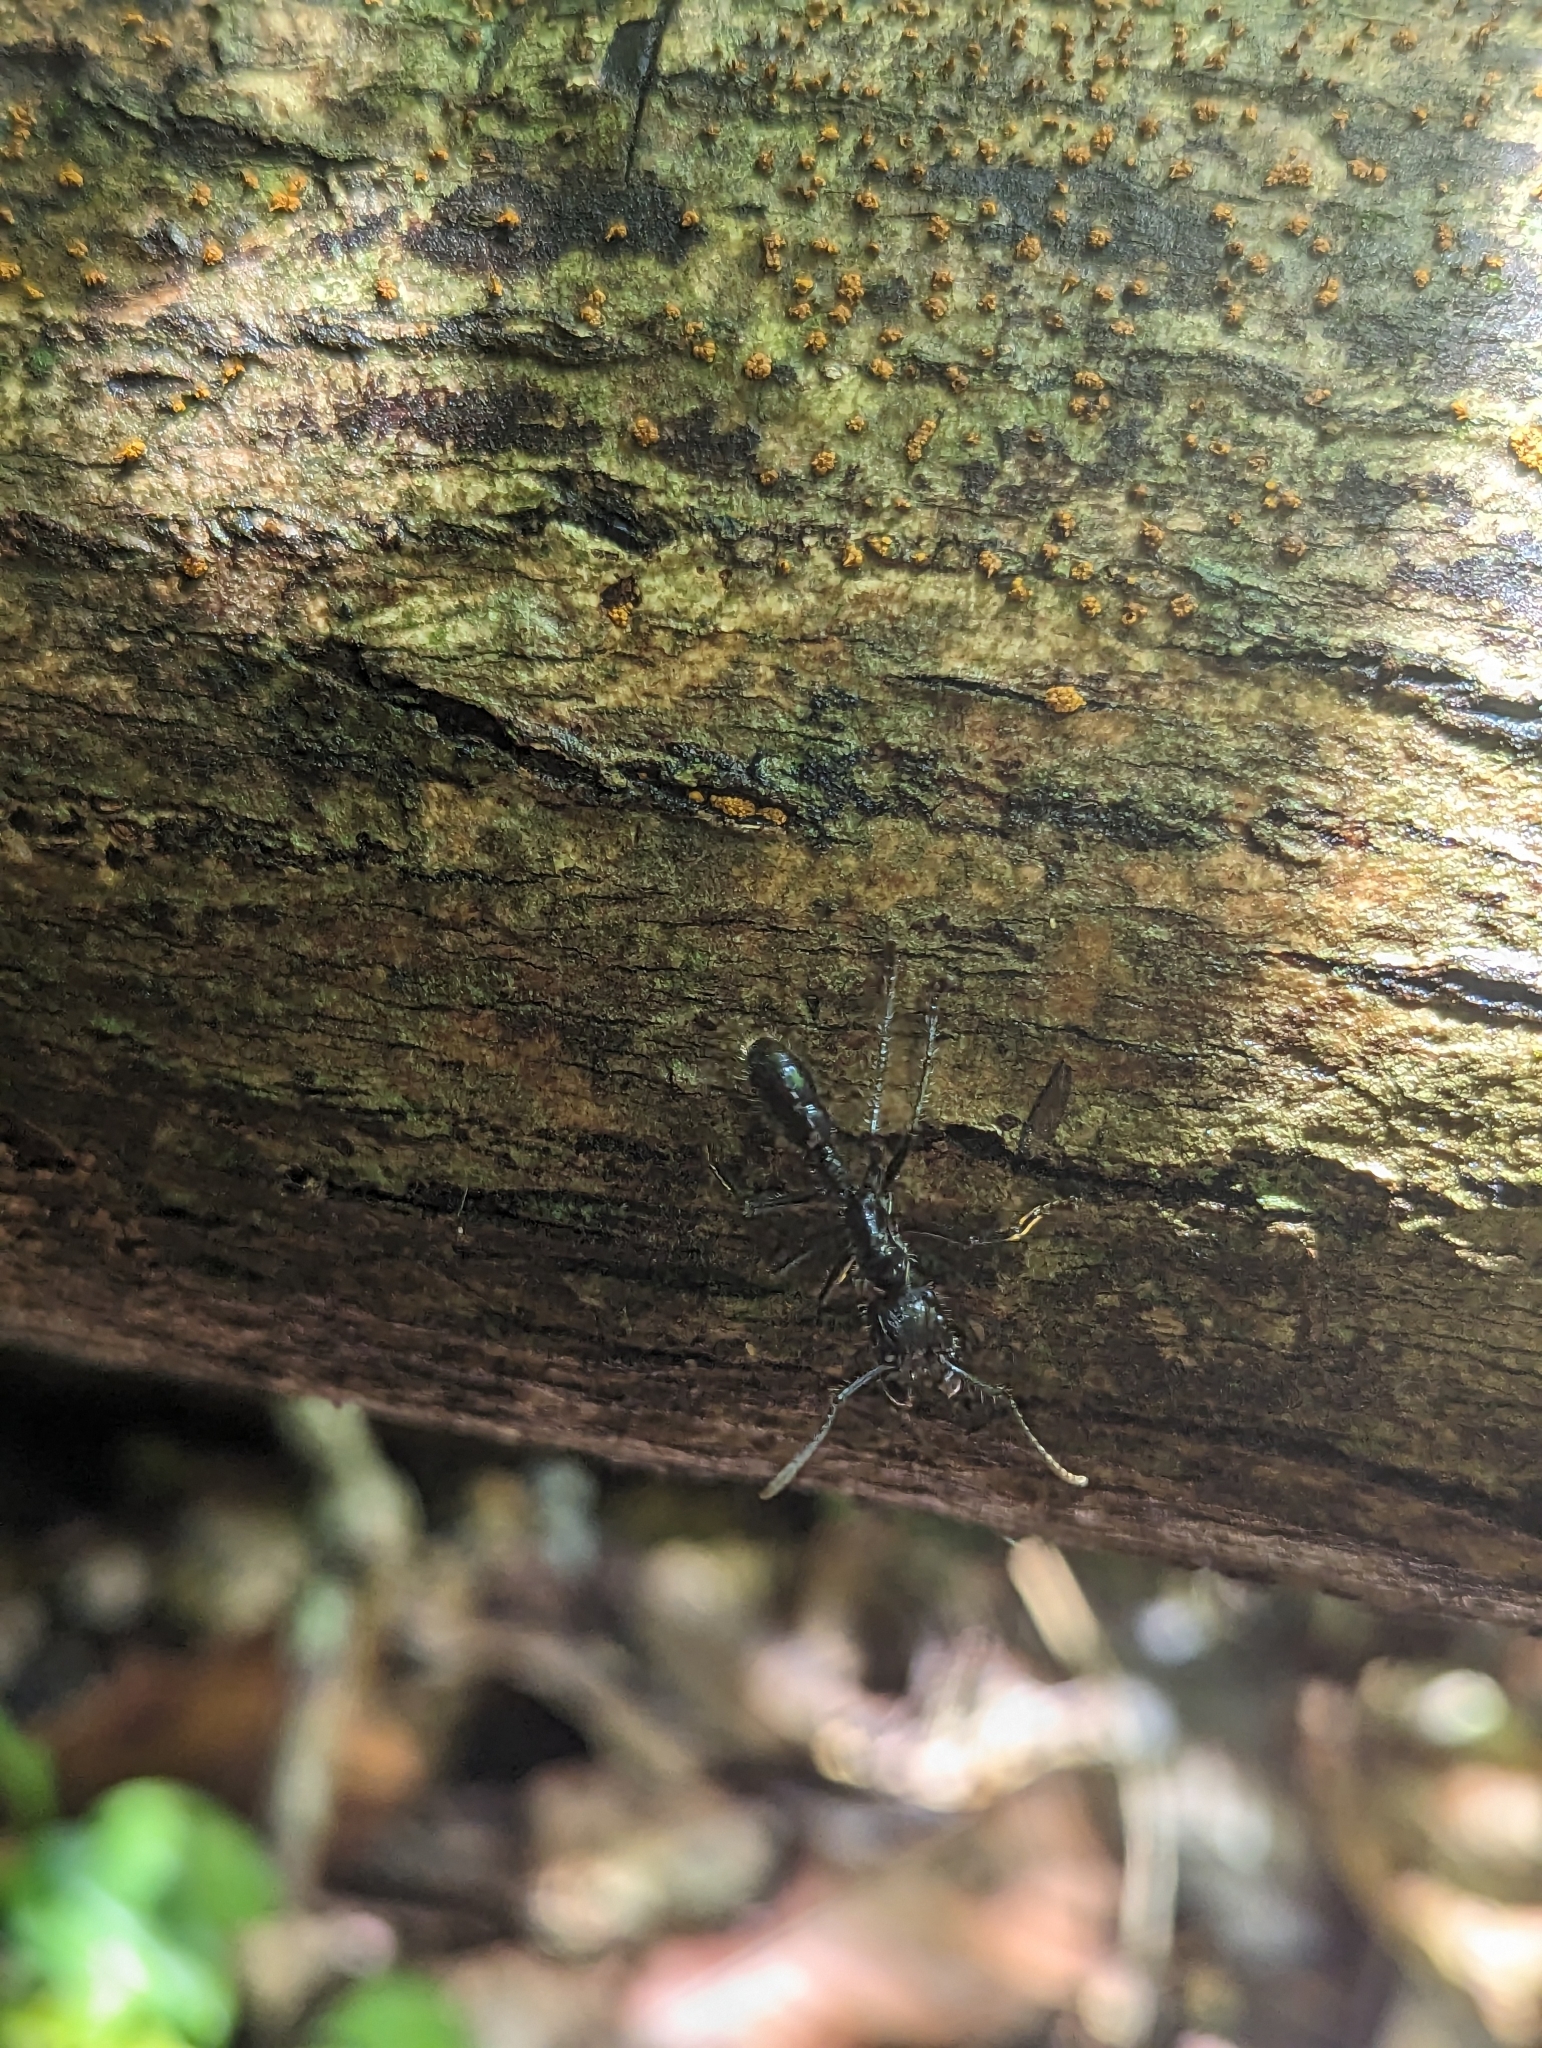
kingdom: Animalia
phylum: Arthropoda
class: Insecta
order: Hymenoptera
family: Formicidae
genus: Paraponera
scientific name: Paraponera clavata
